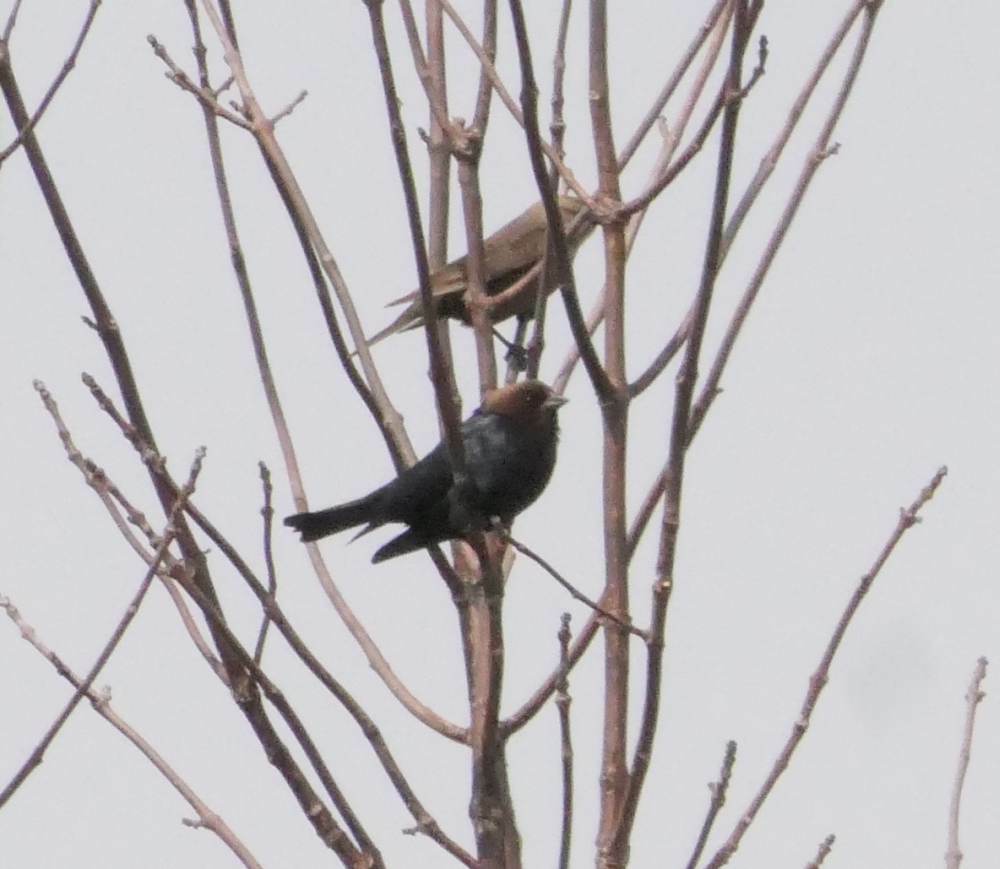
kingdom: Animalia
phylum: Chordata
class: Aves
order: Passeriformes
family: Icteridae
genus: Molothrus
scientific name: Molothrus ater
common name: Brown-headed cowbird
